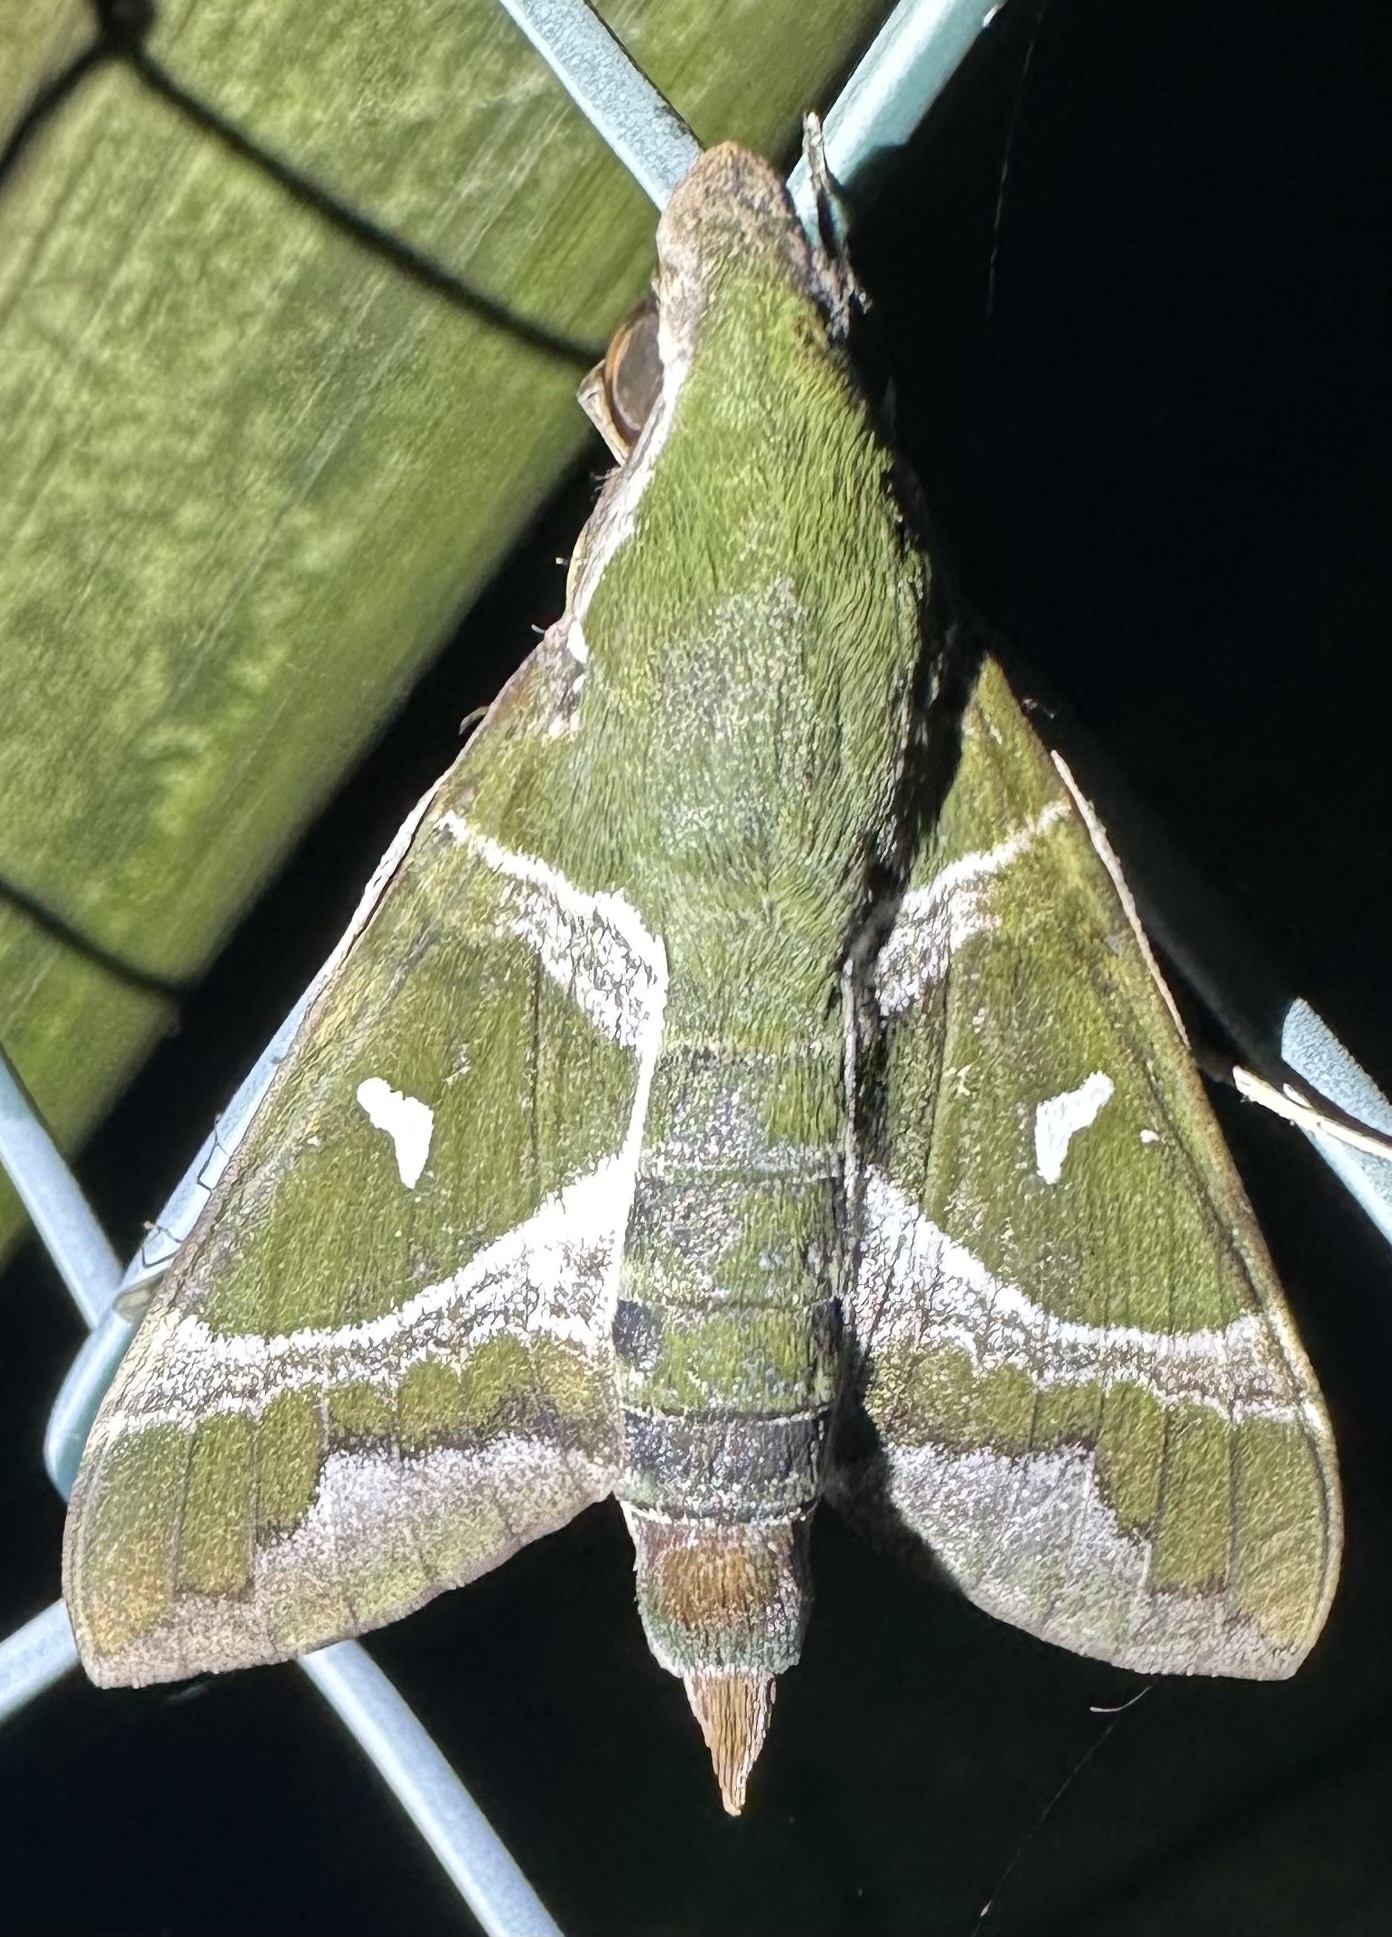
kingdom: Animalia
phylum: Arthropoda
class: Insecta
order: Lepidoptera
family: Sphingidae
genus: Nephele
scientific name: Nephele argentifera
